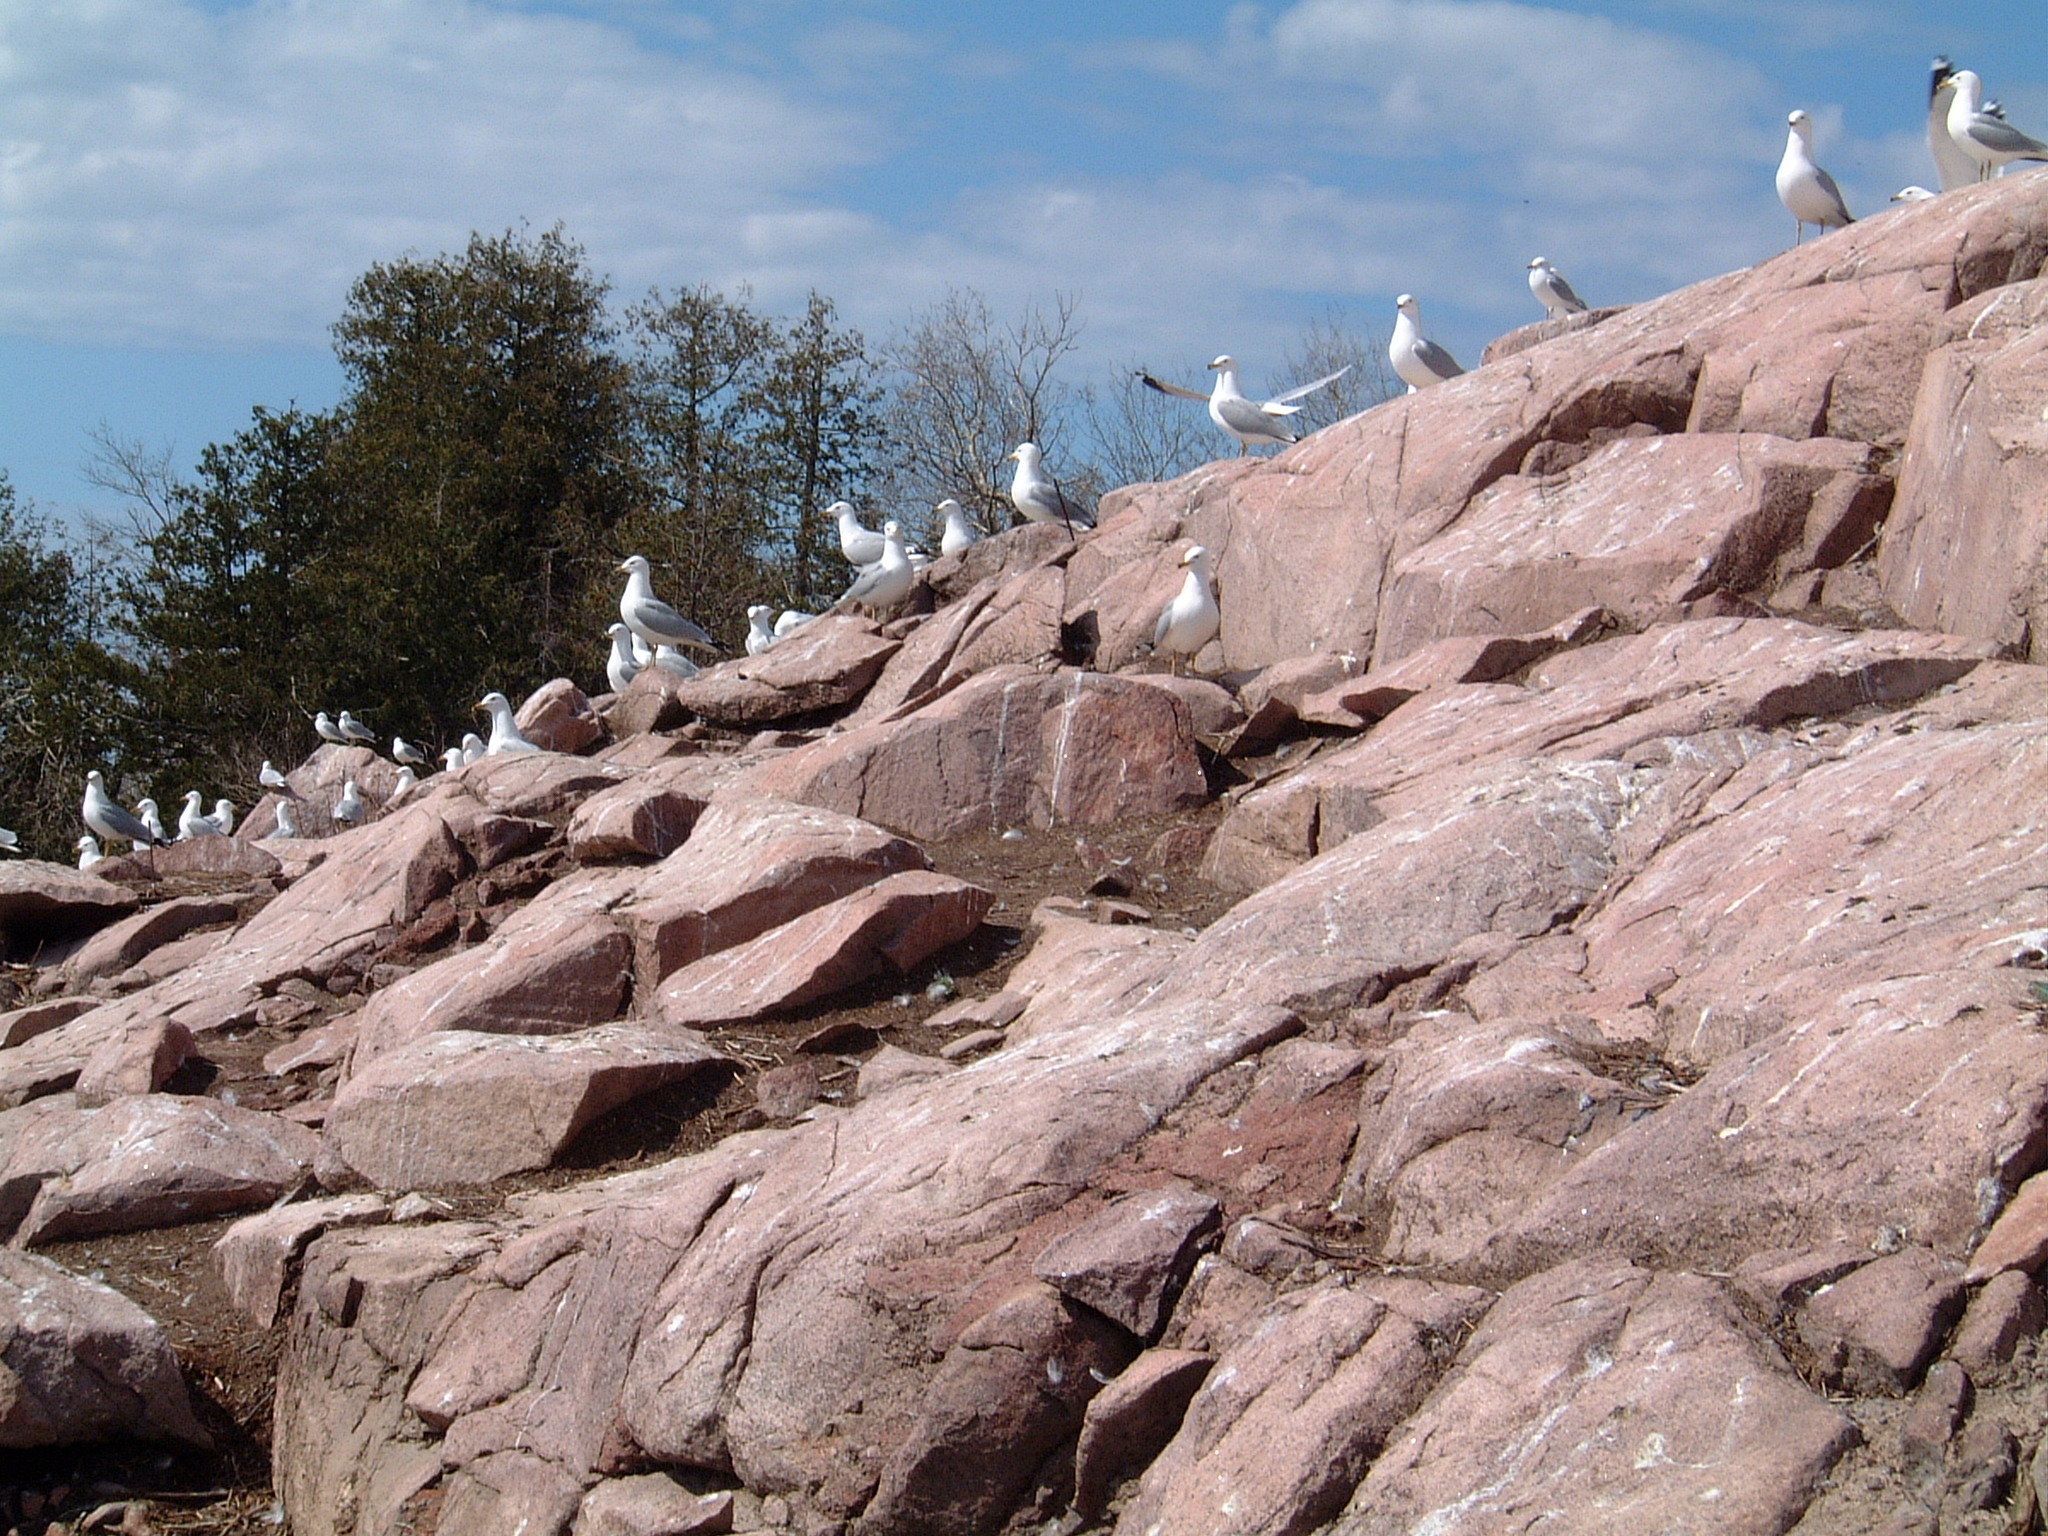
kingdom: Animalia
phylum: Chordata
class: Aves
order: Charadriiformes
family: Laridae
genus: Larus
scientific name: Larus delawarensis
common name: Ring-billed gull
